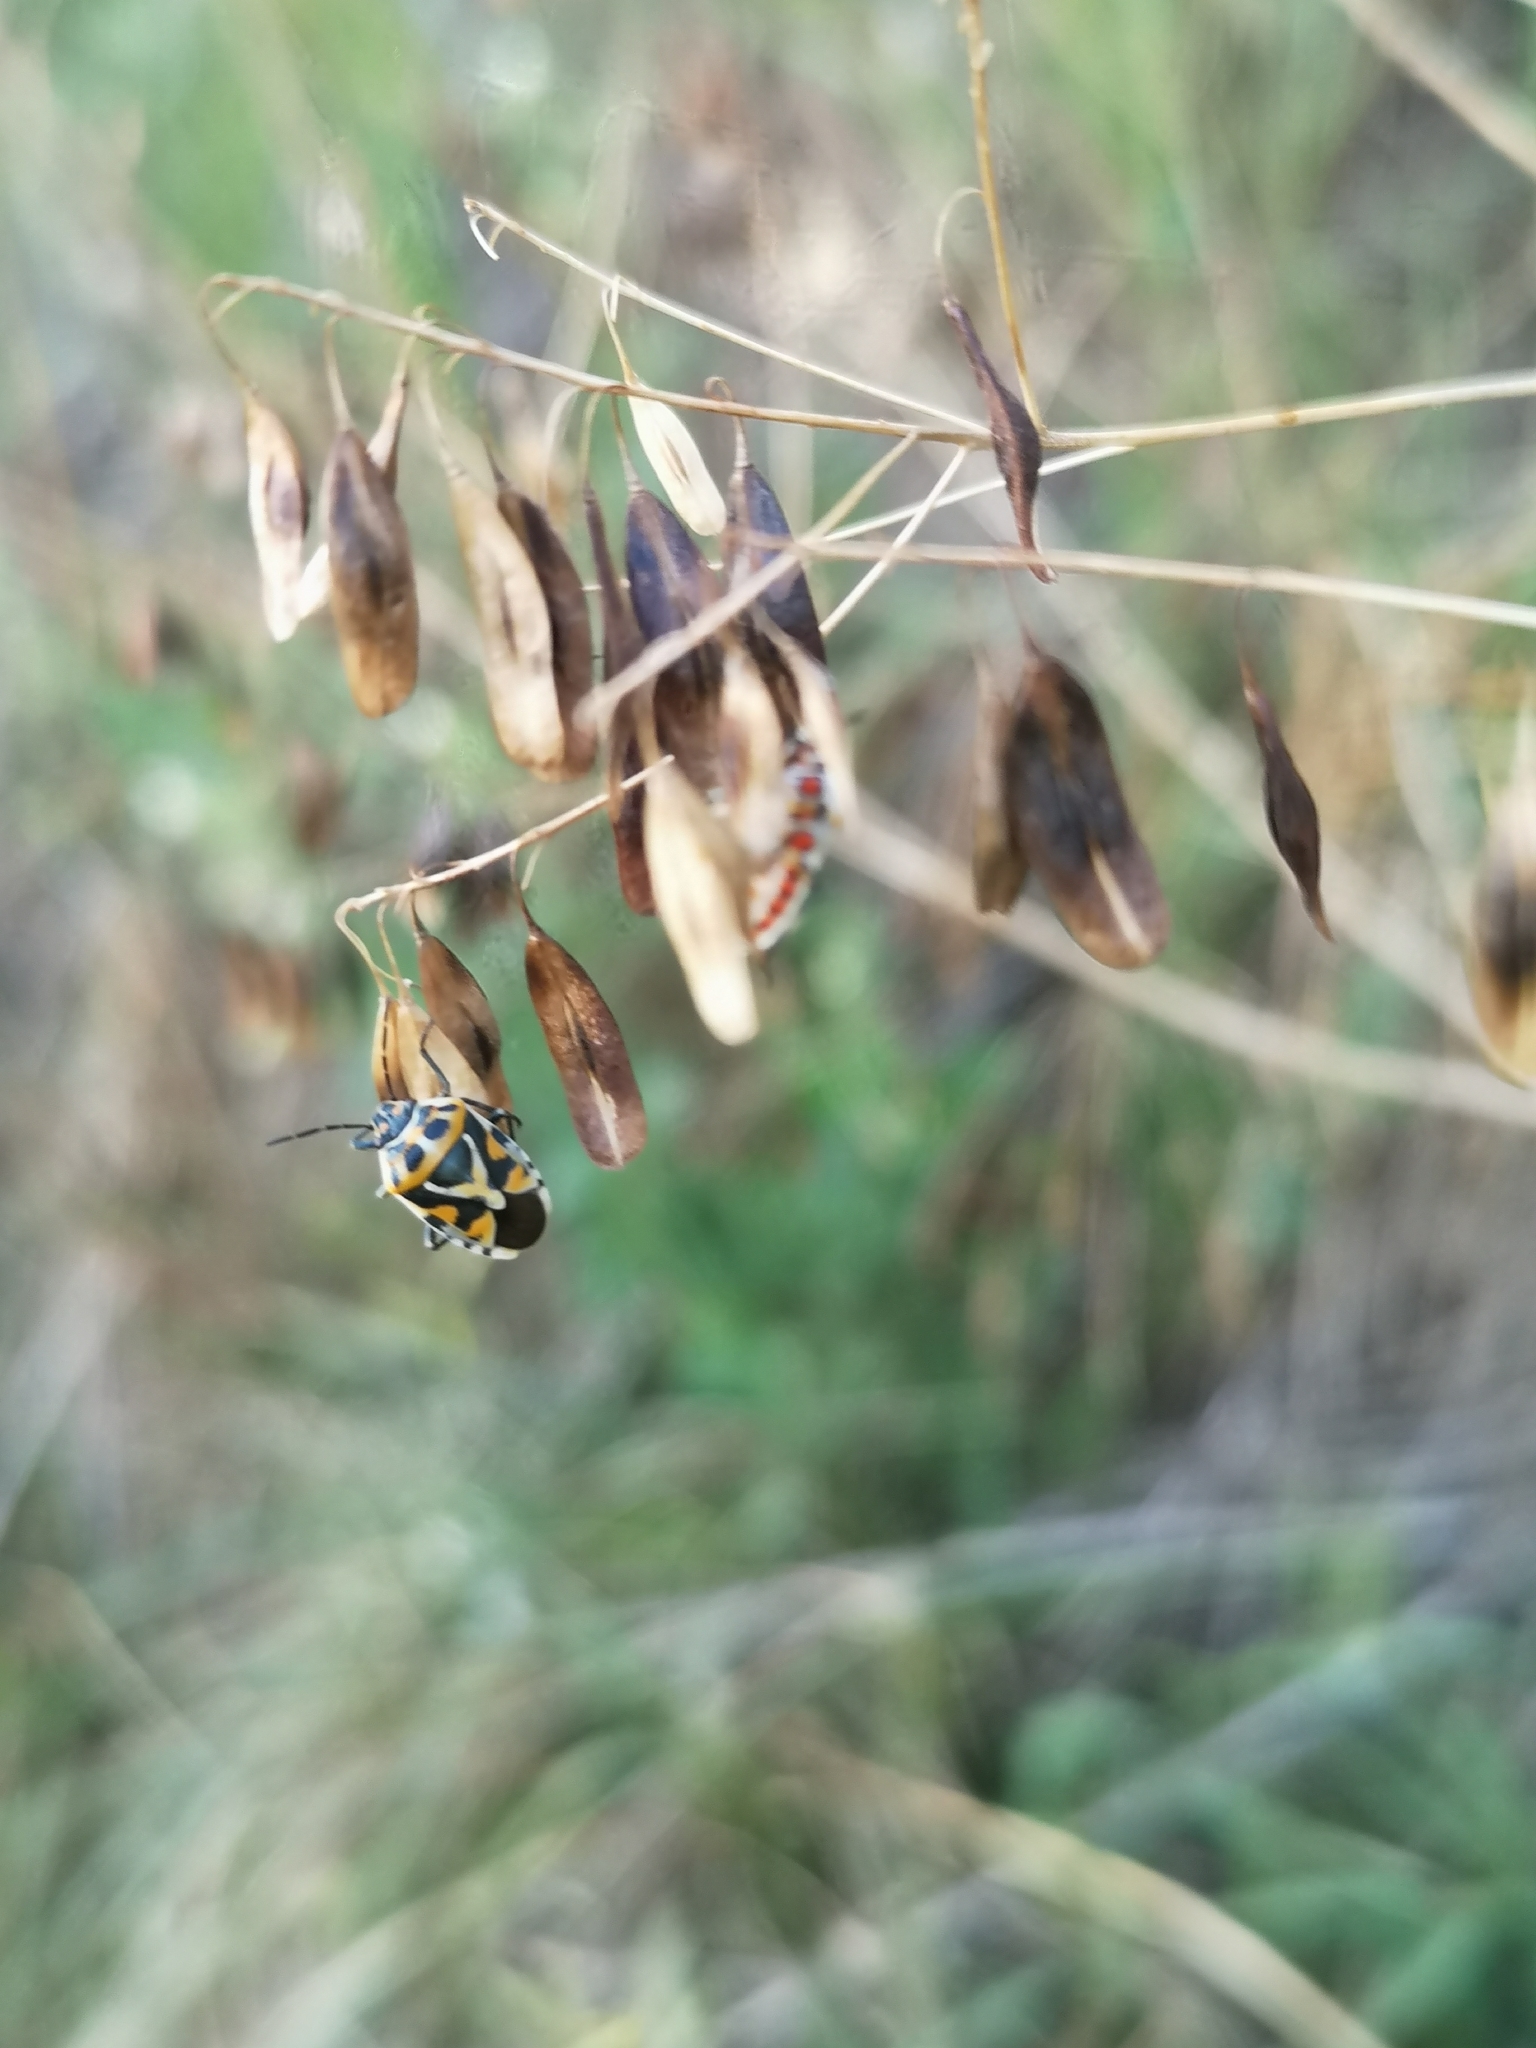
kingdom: Animalia
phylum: Arthropoda
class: Insecta
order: Hemiptera
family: Pentatomidae
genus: Eurydema
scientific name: Eurydema ornata
